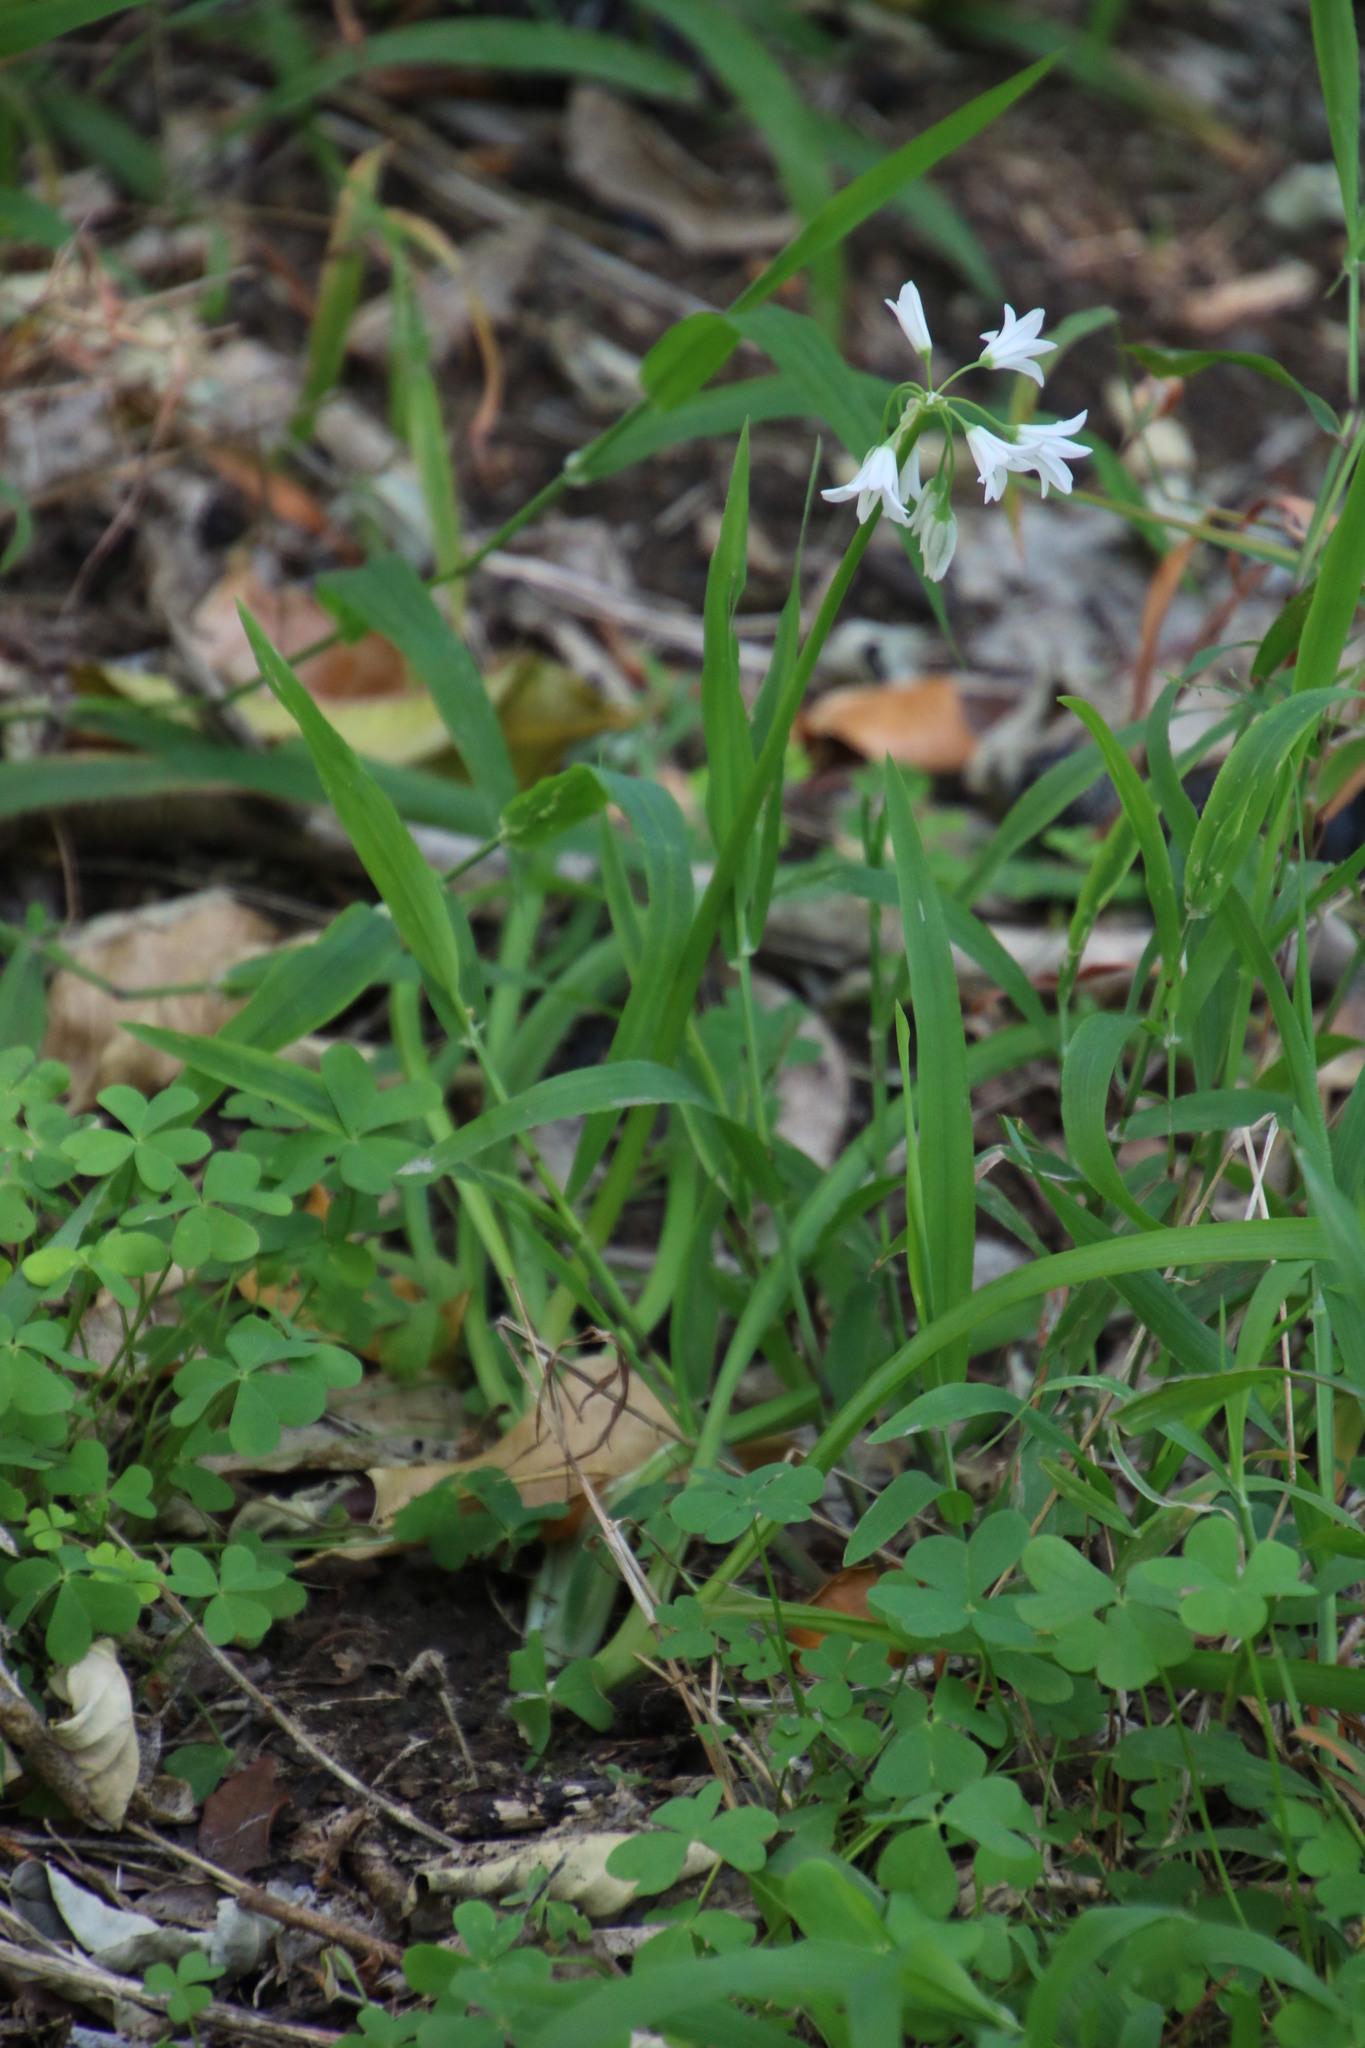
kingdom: Plantae
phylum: Tracheophyta
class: Liliopsida
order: Asparagales
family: Amaryllidaceae
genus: Allium
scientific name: Allium triquetrum
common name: Three-cornered garlic
